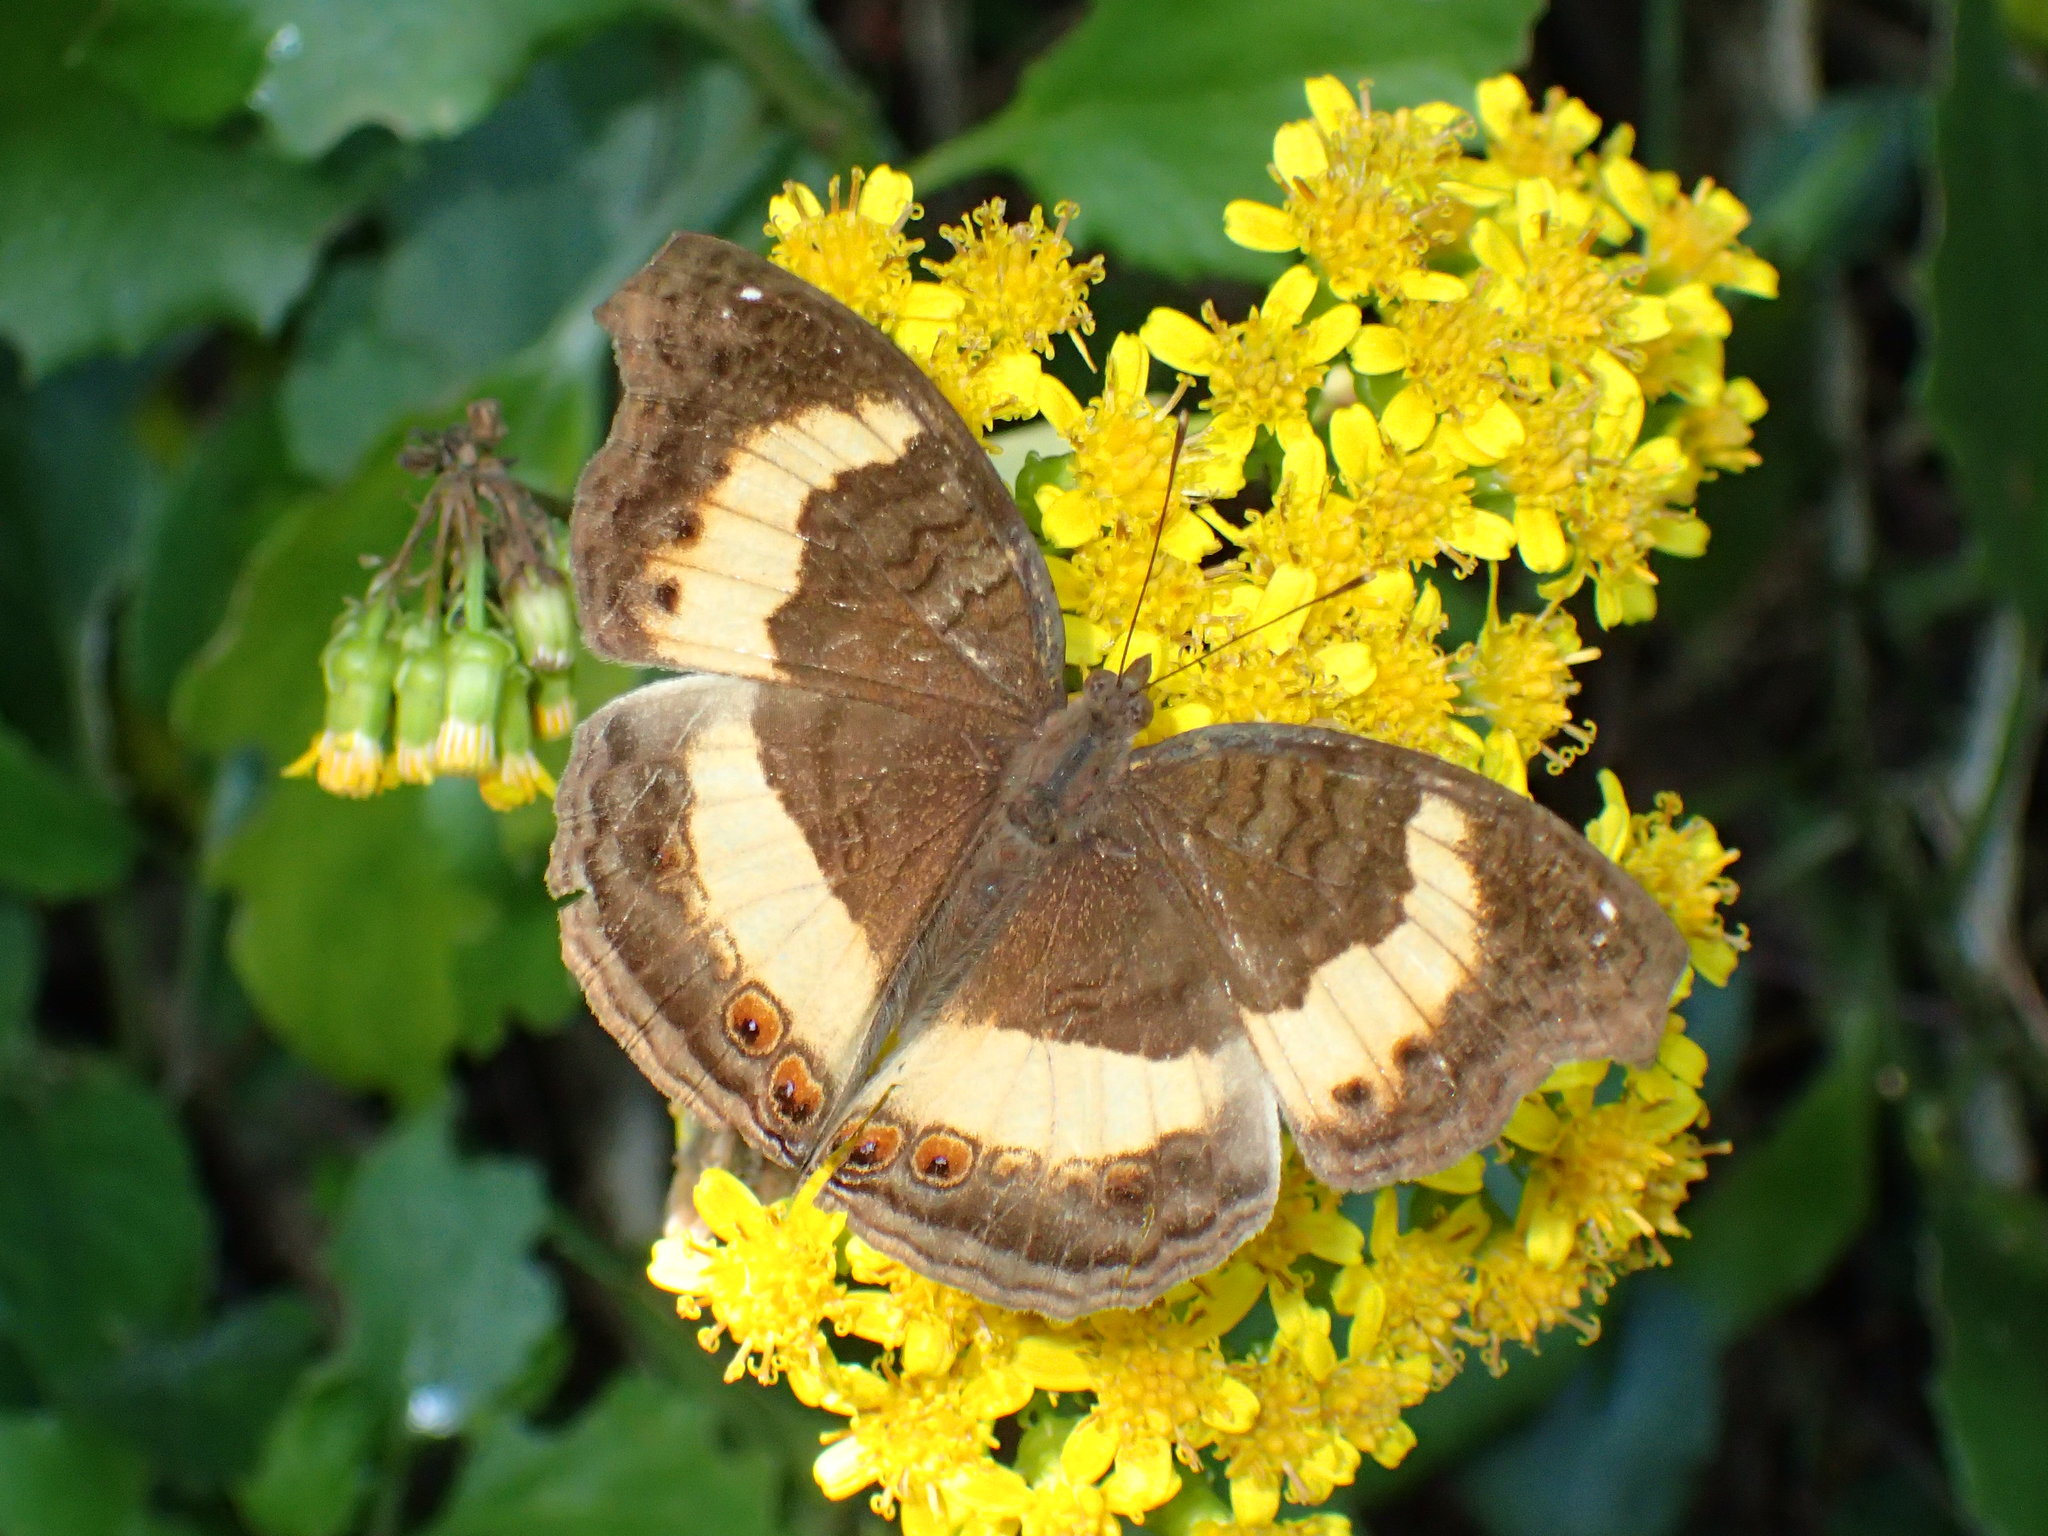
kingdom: Animalia
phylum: Arthropoda
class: Insecta
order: Lepidoptera
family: Nymphalidae
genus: Junonia
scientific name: Junonia terea
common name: Soldier pansy
